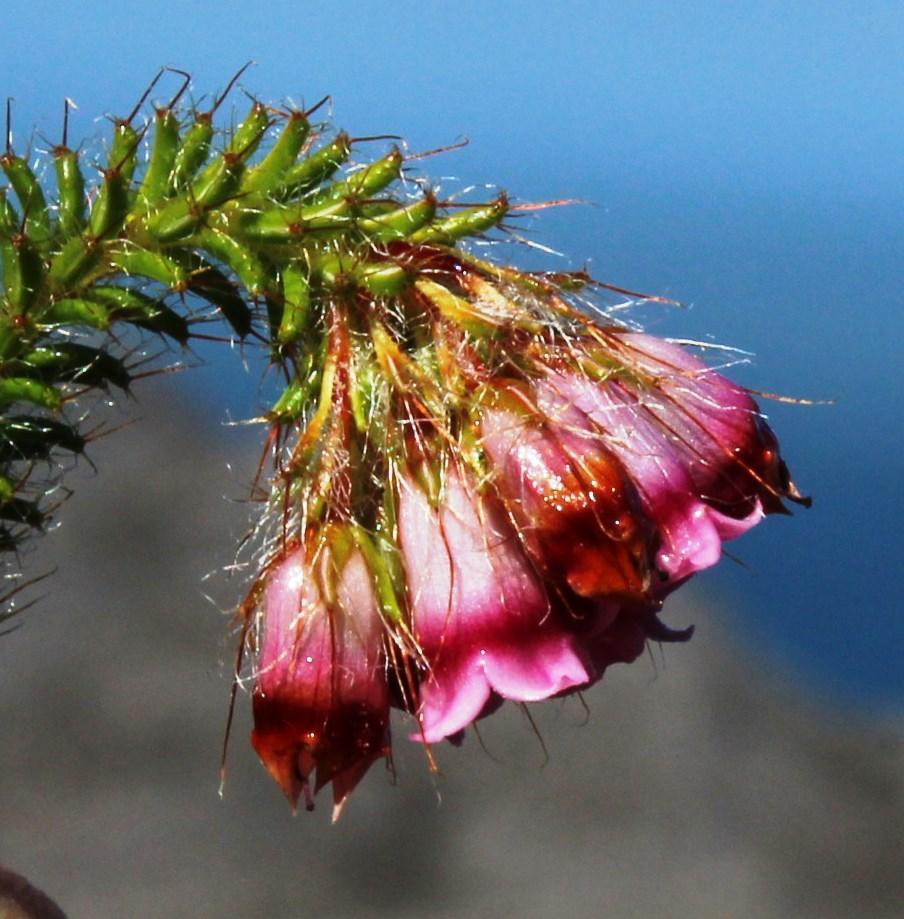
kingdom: Plantae
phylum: Tracheophyta
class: Magnoliopsida
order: Ericales
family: Ericaceae
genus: Erica
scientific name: Erica cygnea
